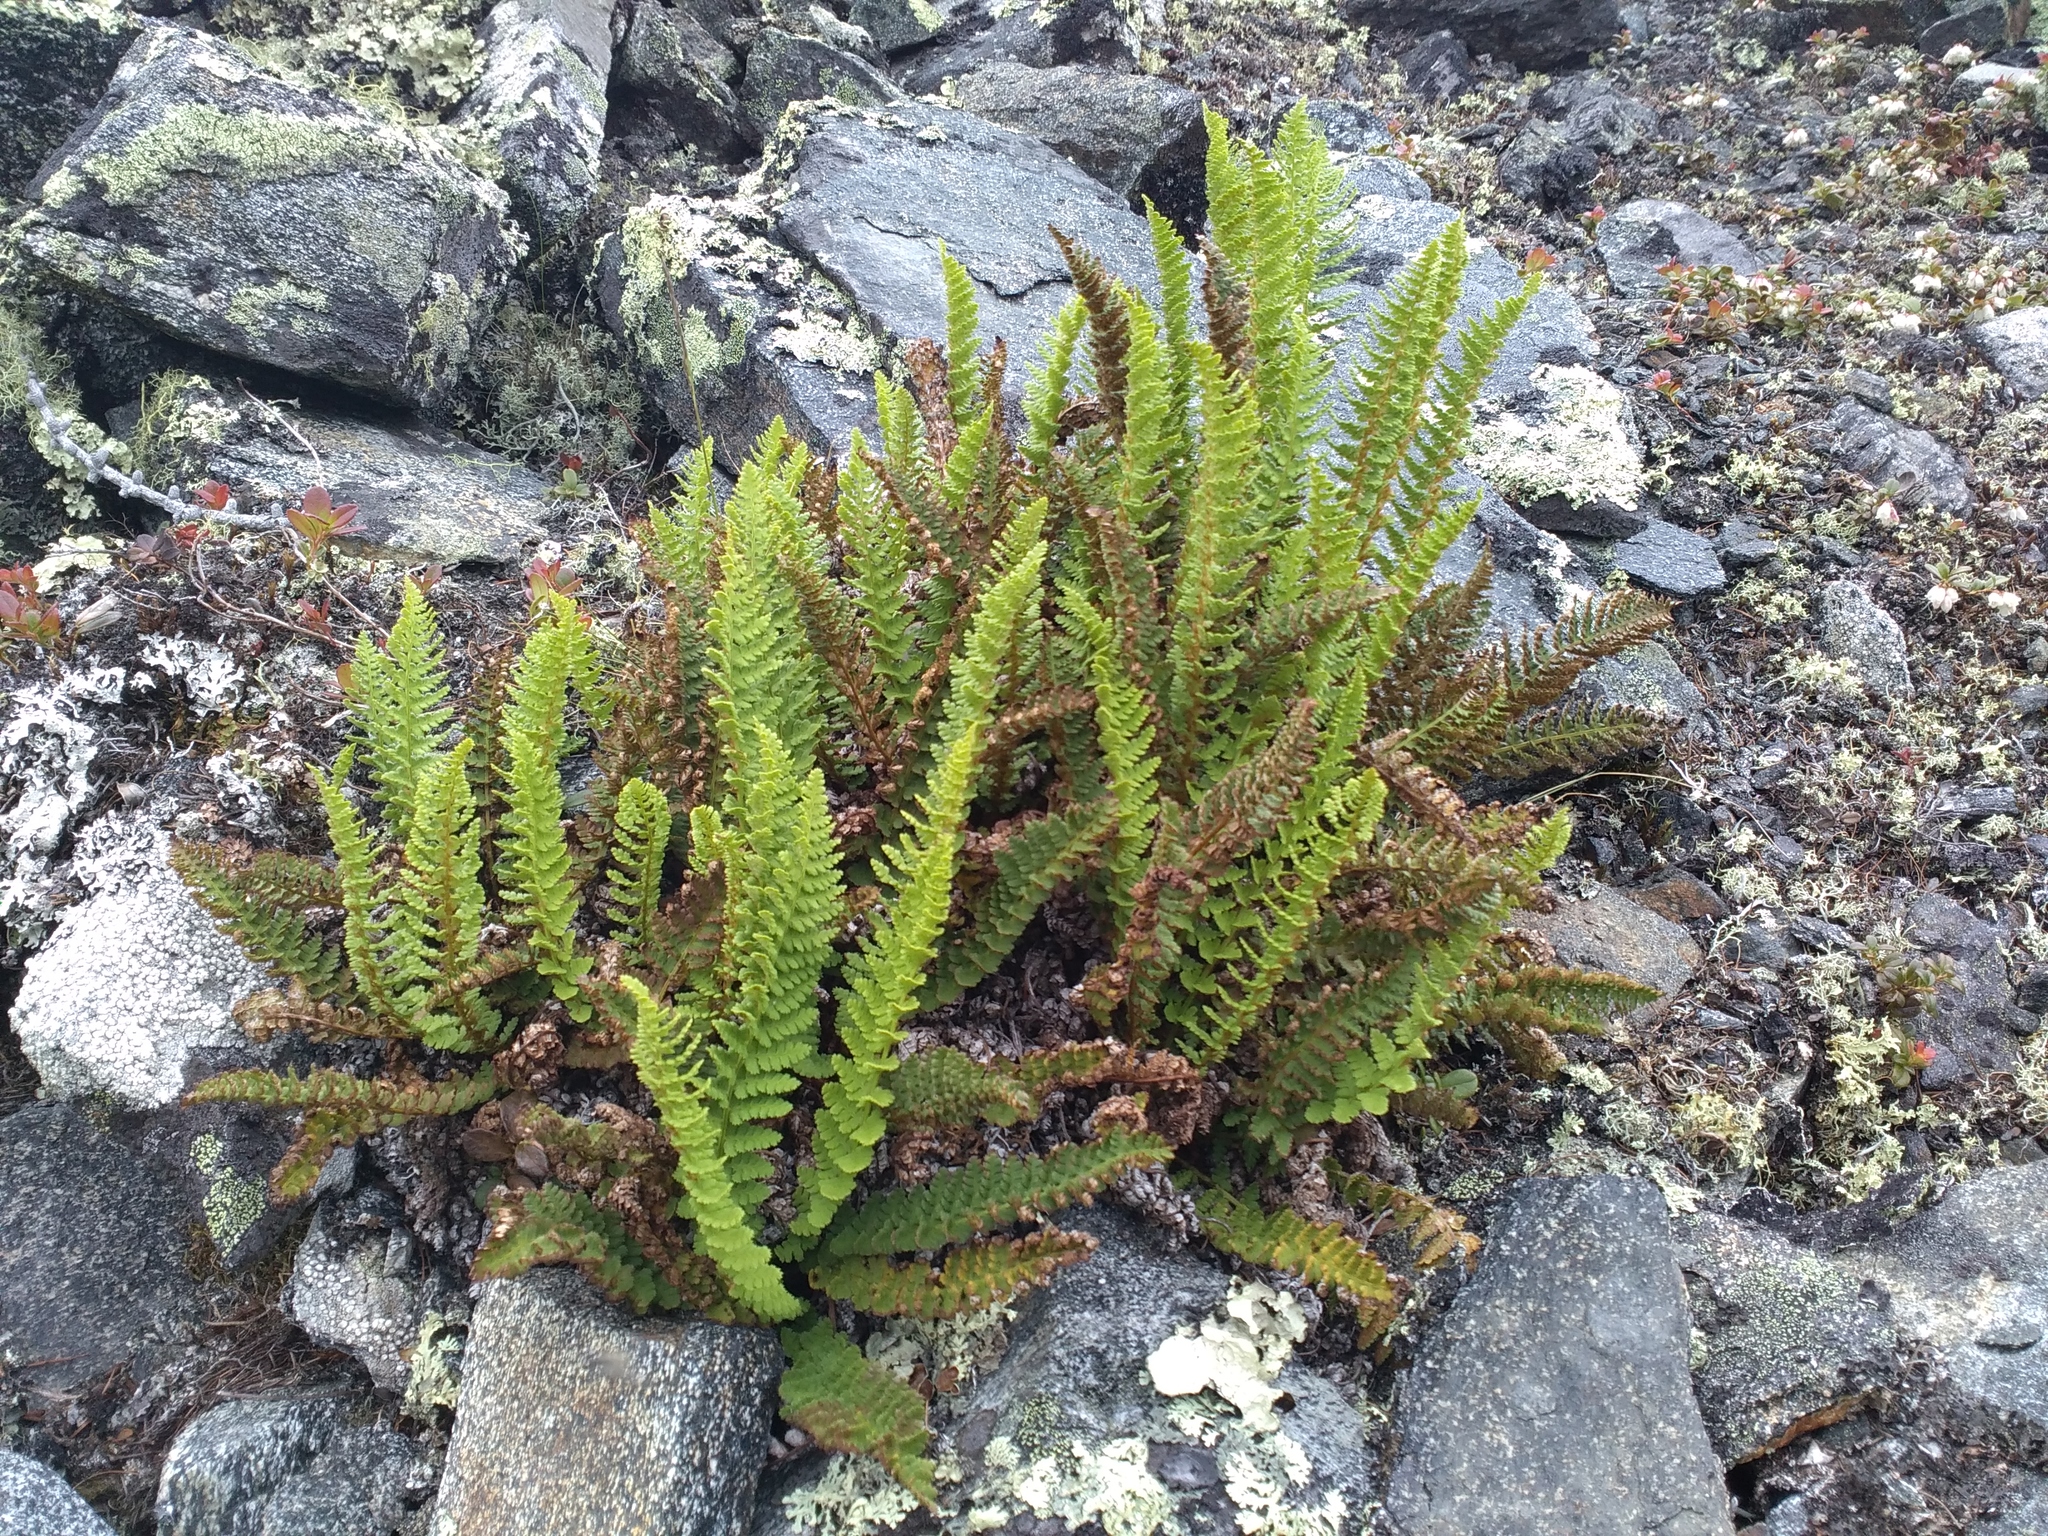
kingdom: Plantae
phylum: Tracheophyta
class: Polypodiopsida
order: Polypodiales
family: Dryopteridaceae
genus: Dryopteris
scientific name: Dryopteris fragrans
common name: Fragrant wood fern
